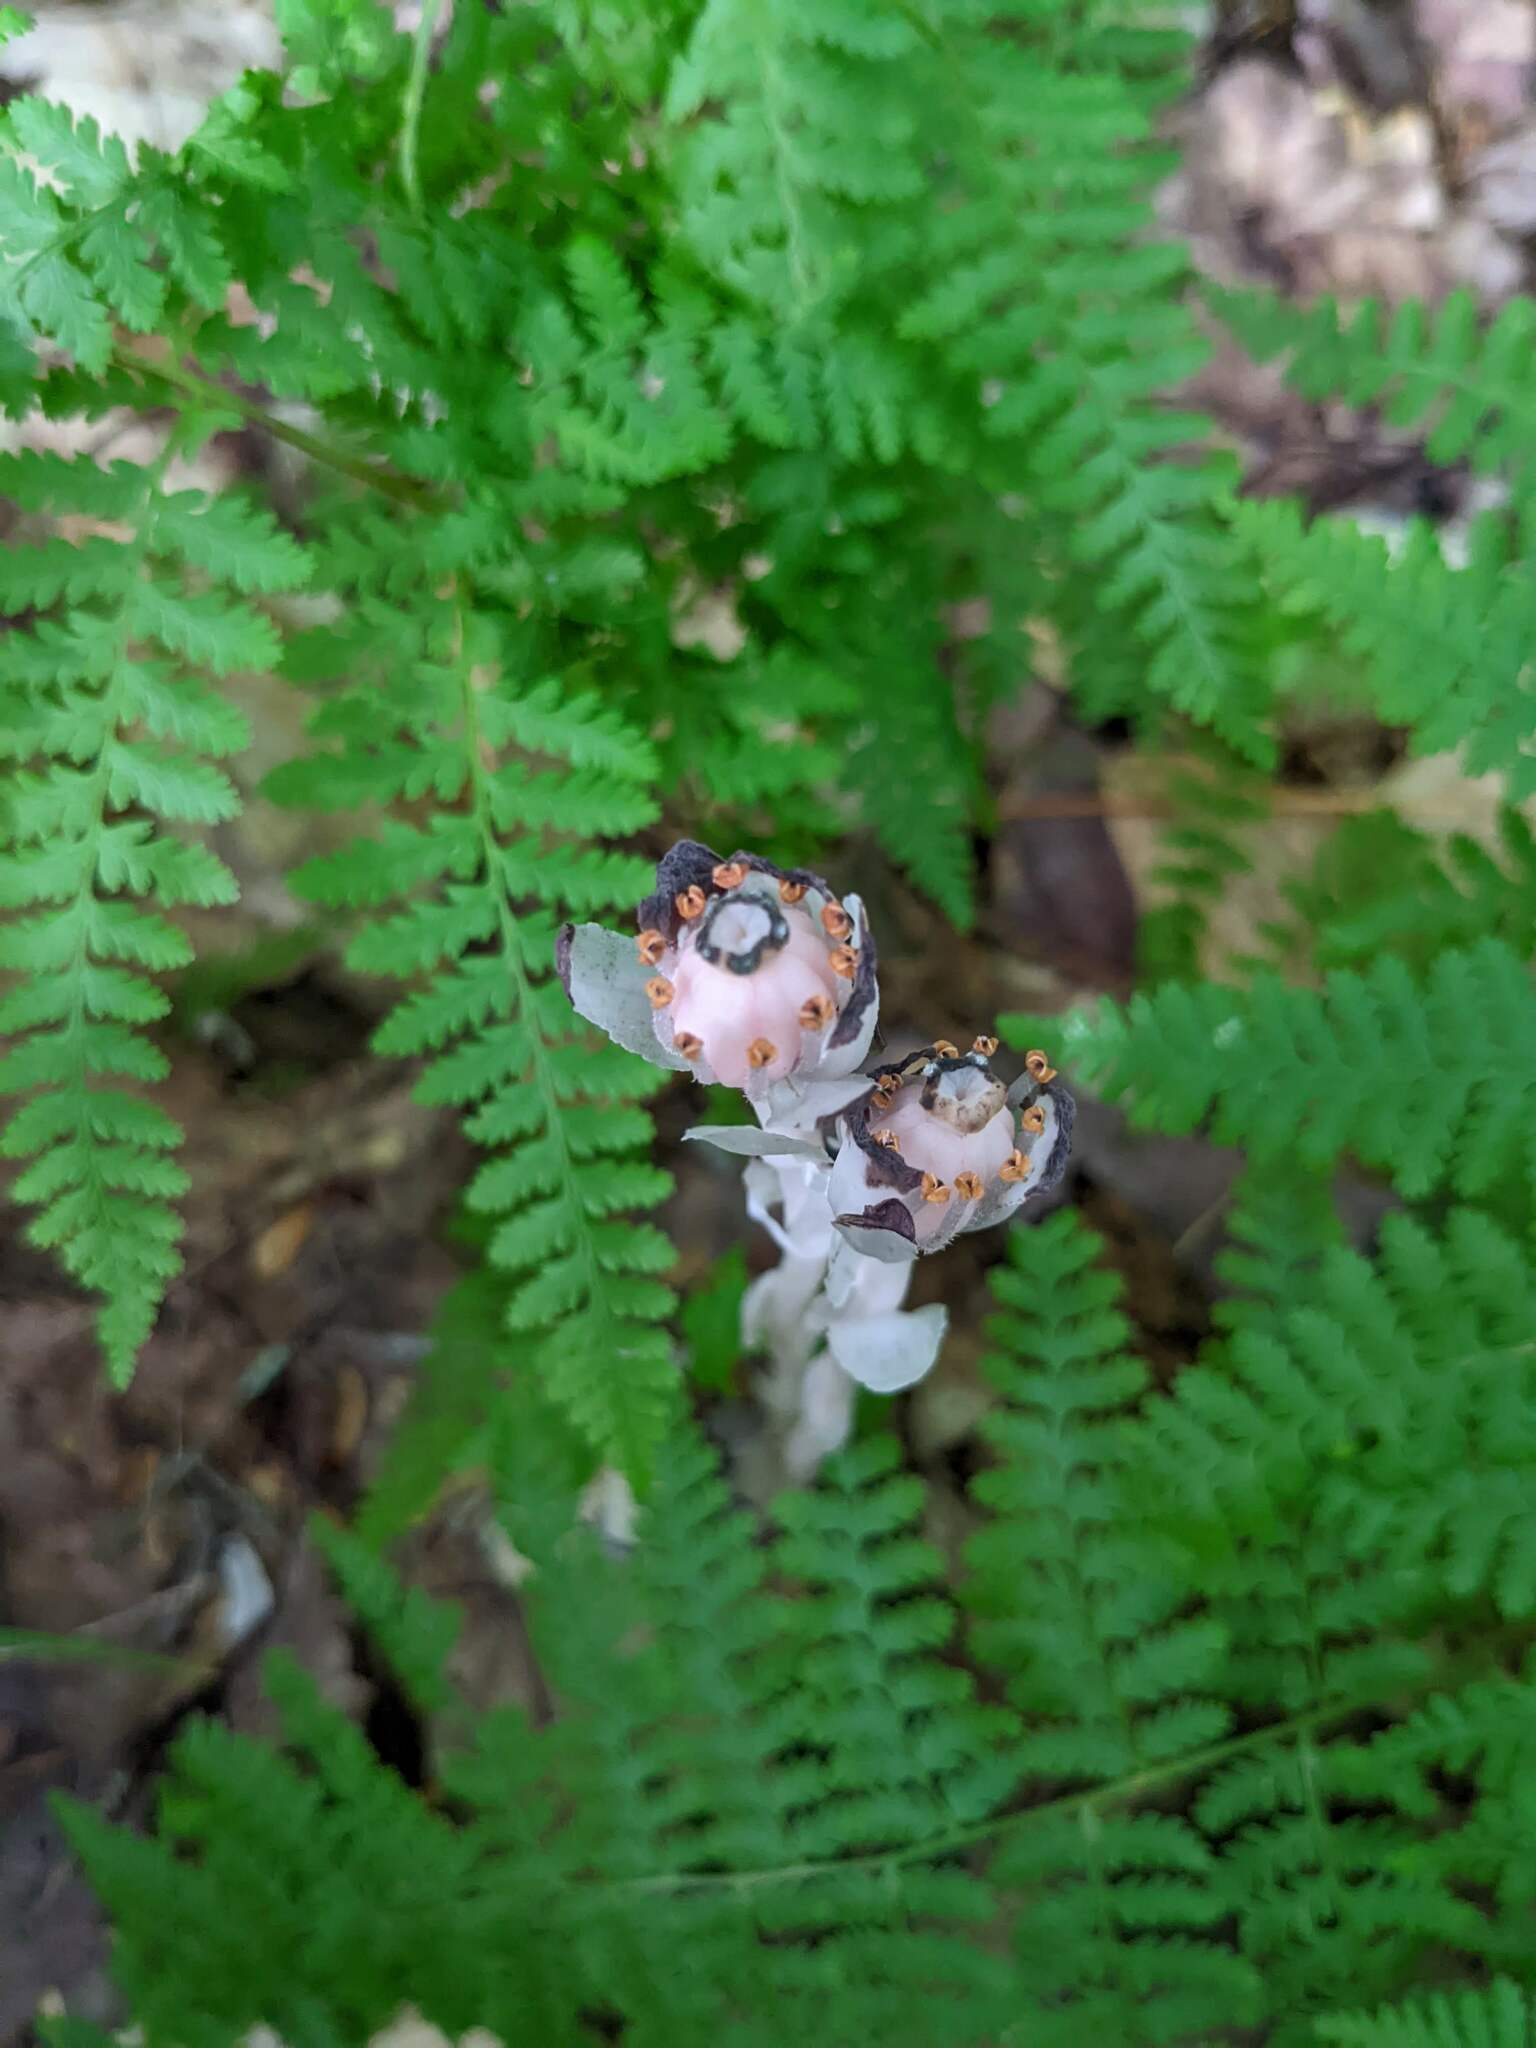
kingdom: Plantae
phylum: Tracheophyta
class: Magnoliopsida
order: Ericales
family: Ericaceae
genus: Monotropa
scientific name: Monotropa uniflora
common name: Convulsion root
